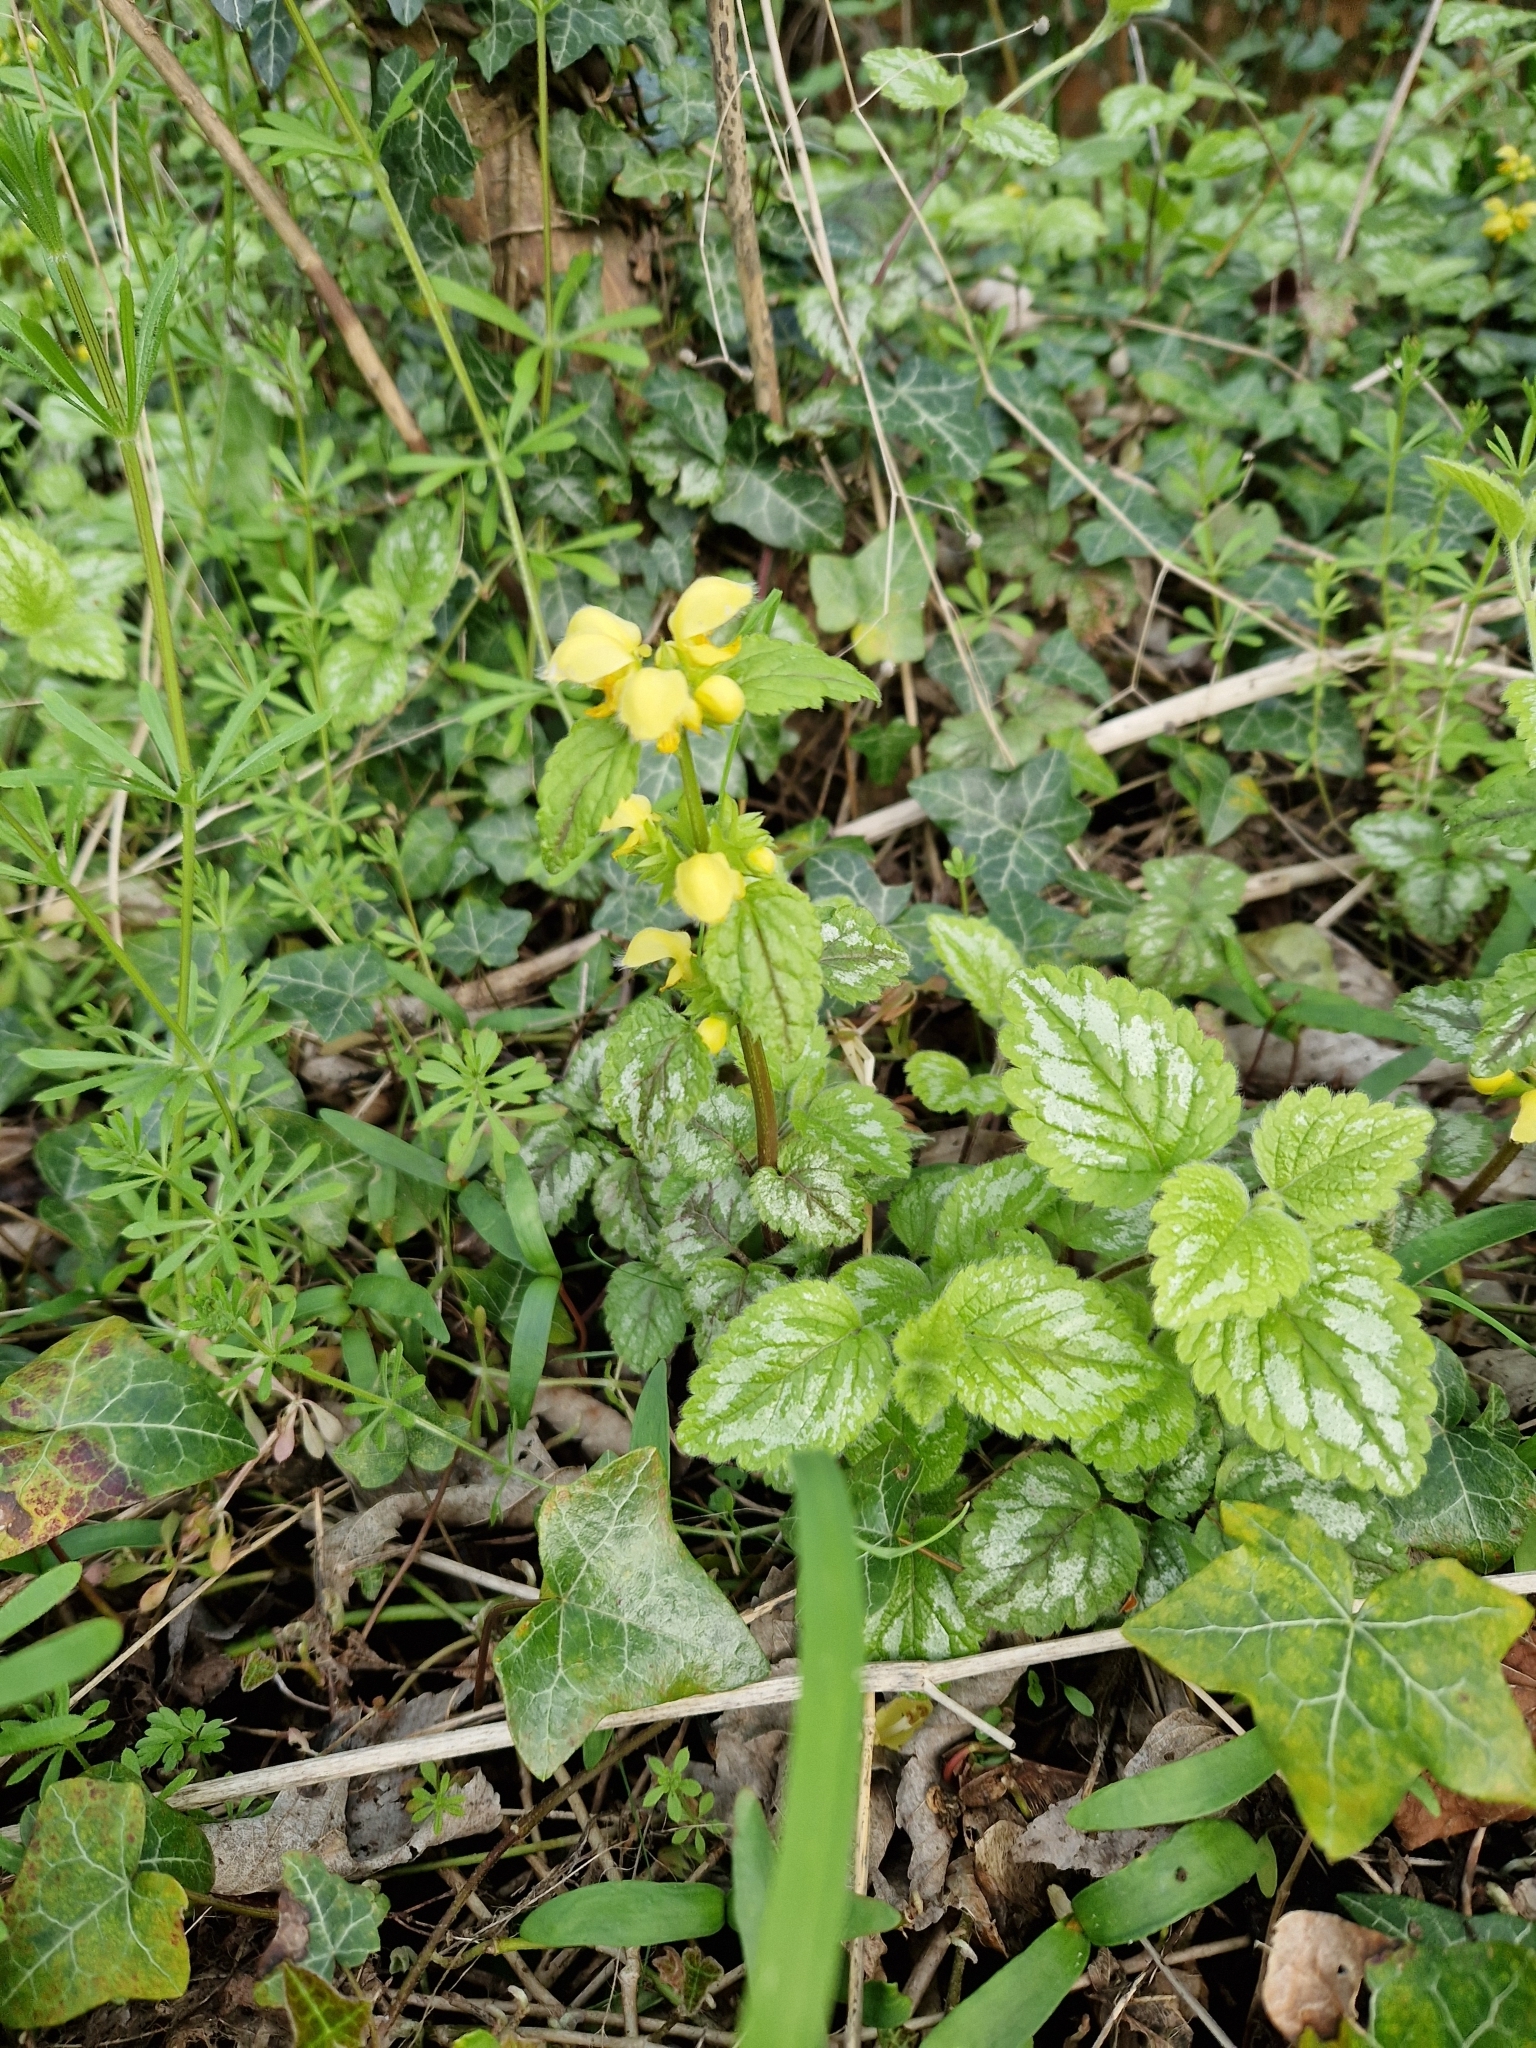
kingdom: Plantae
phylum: Tracheophyta
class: Magnoliopsida
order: Lamiales
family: Lamiaceae
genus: Lamium
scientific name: Lamium galeobdolon
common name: Yellow archangel
